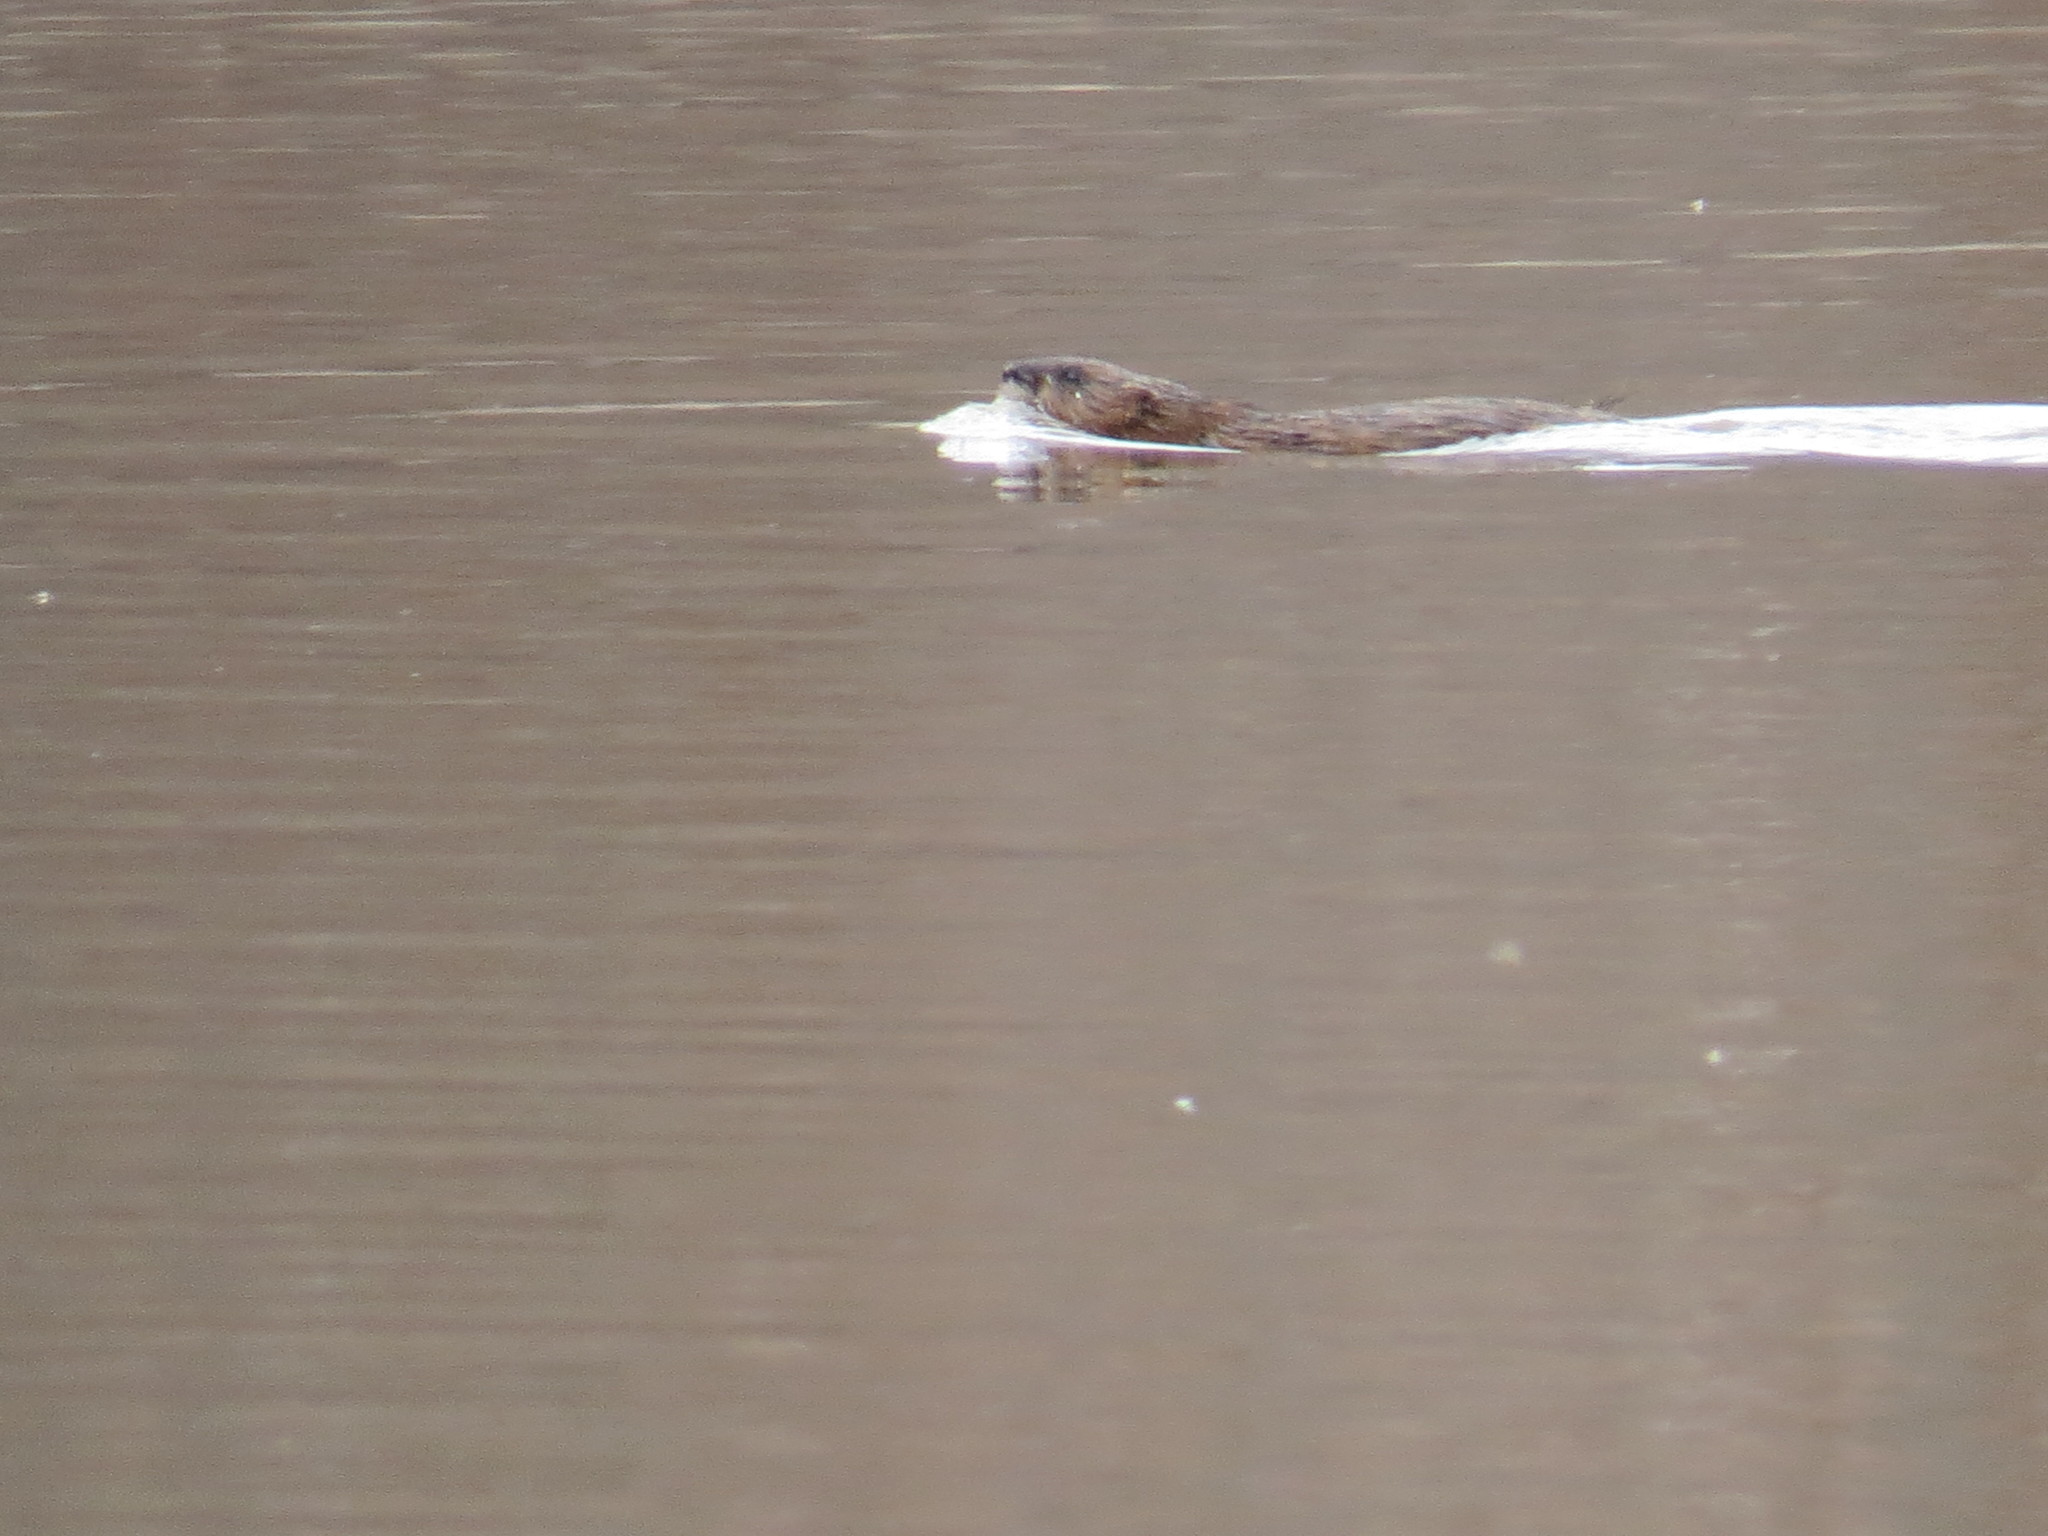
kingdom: Animalia
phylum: Chordata
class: Mammalia
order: Rodentia
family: Cricetidae
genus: Ondatra
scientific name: Ondatra zibethicus
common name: Muskrat
